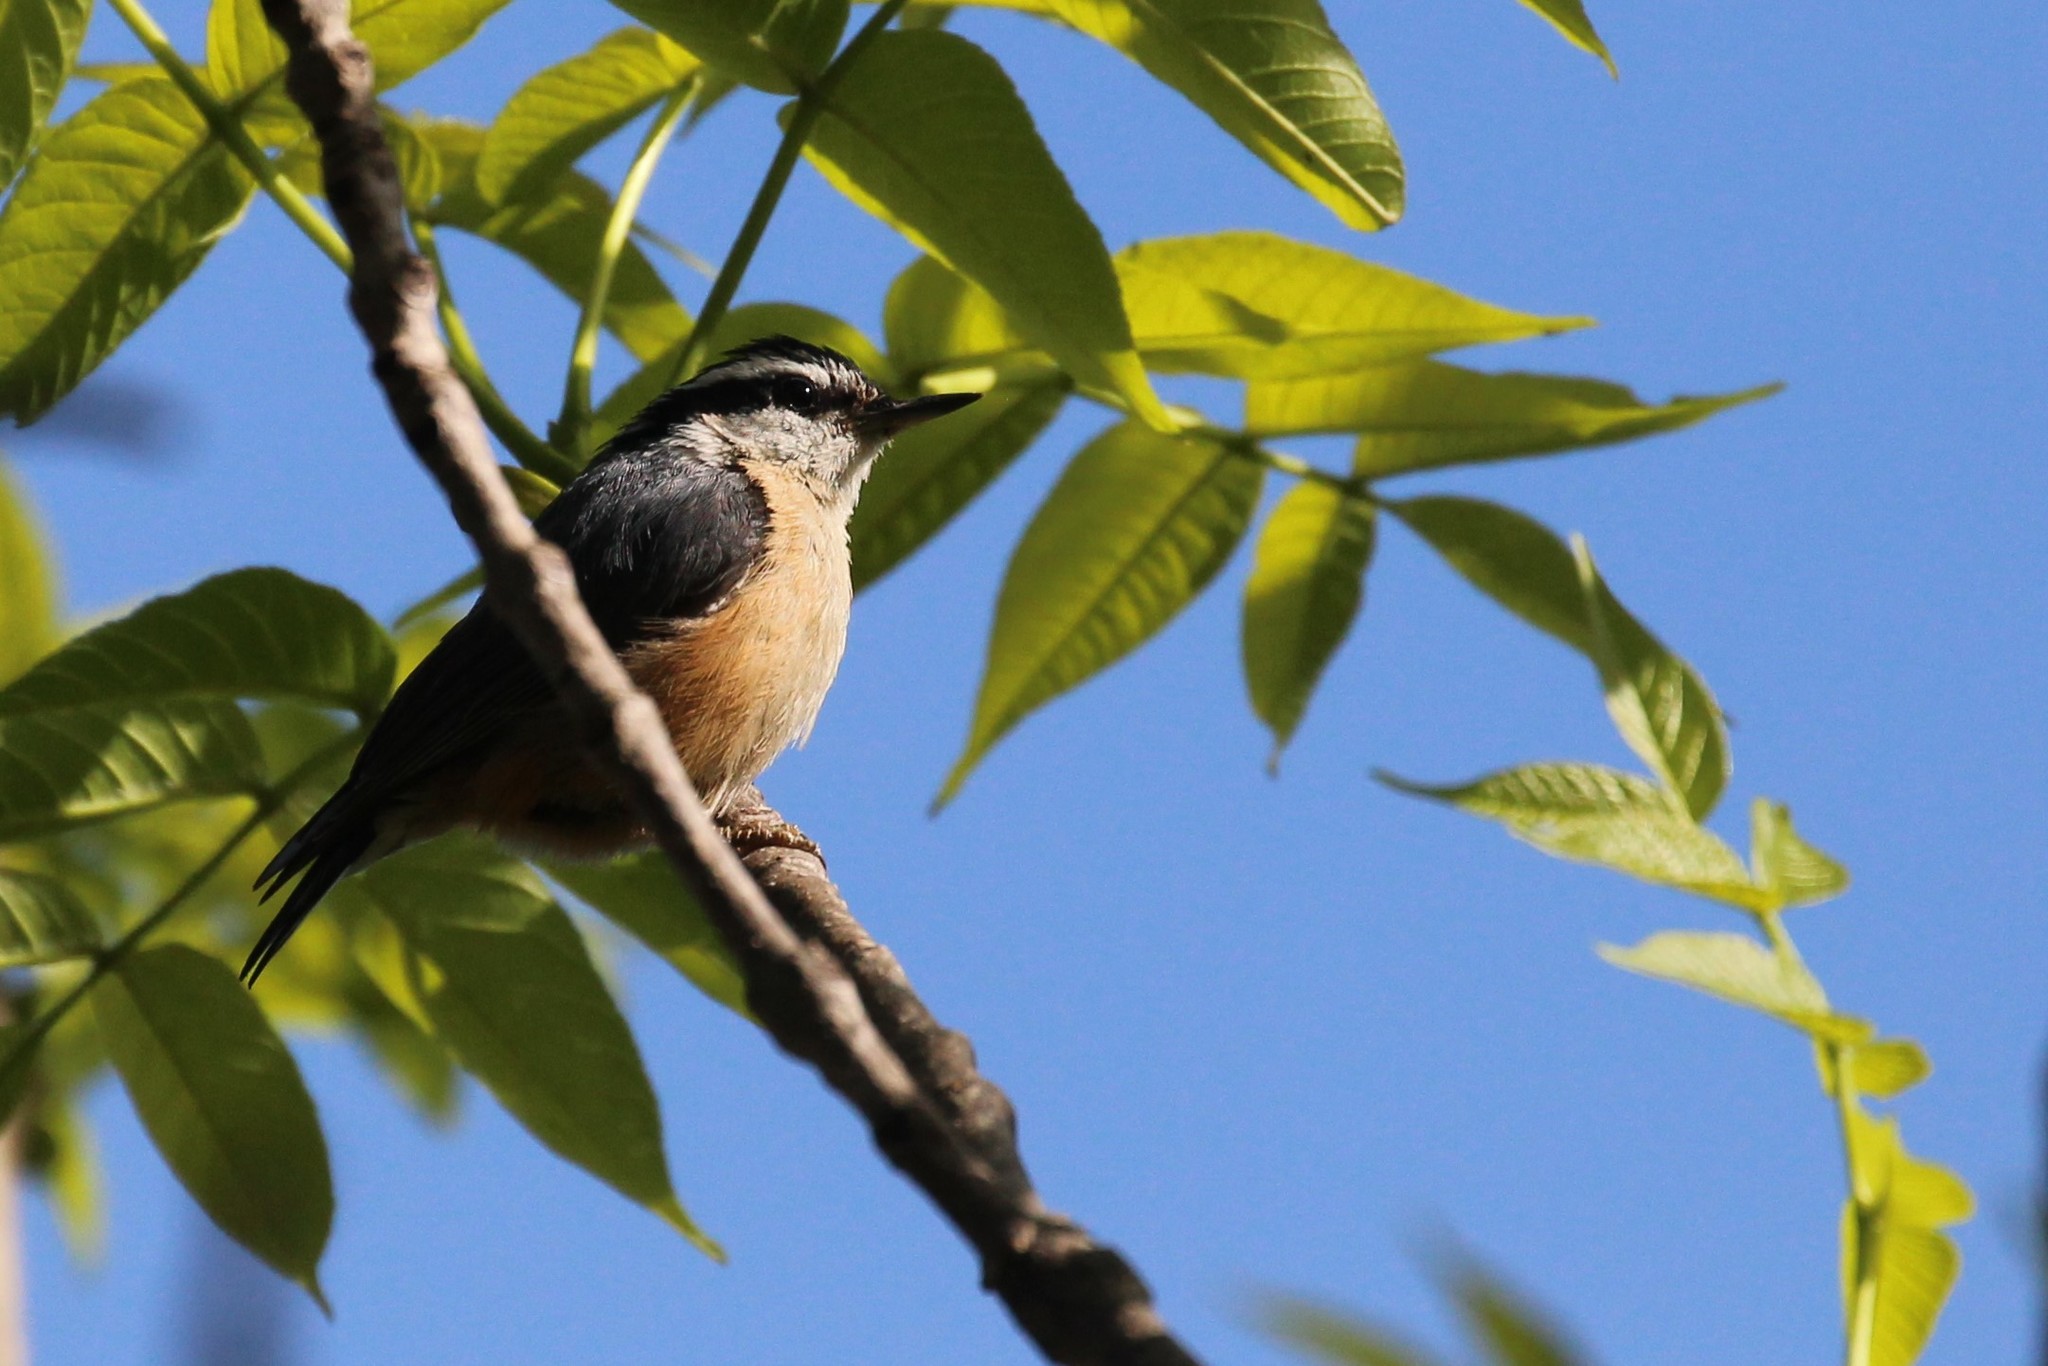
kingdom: Animalia
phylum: Chordata
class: Aves
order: Passeriformes
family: Sittidae
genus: Sitta
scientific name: Sitta canadensis
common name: Red-breasted nuthatch
